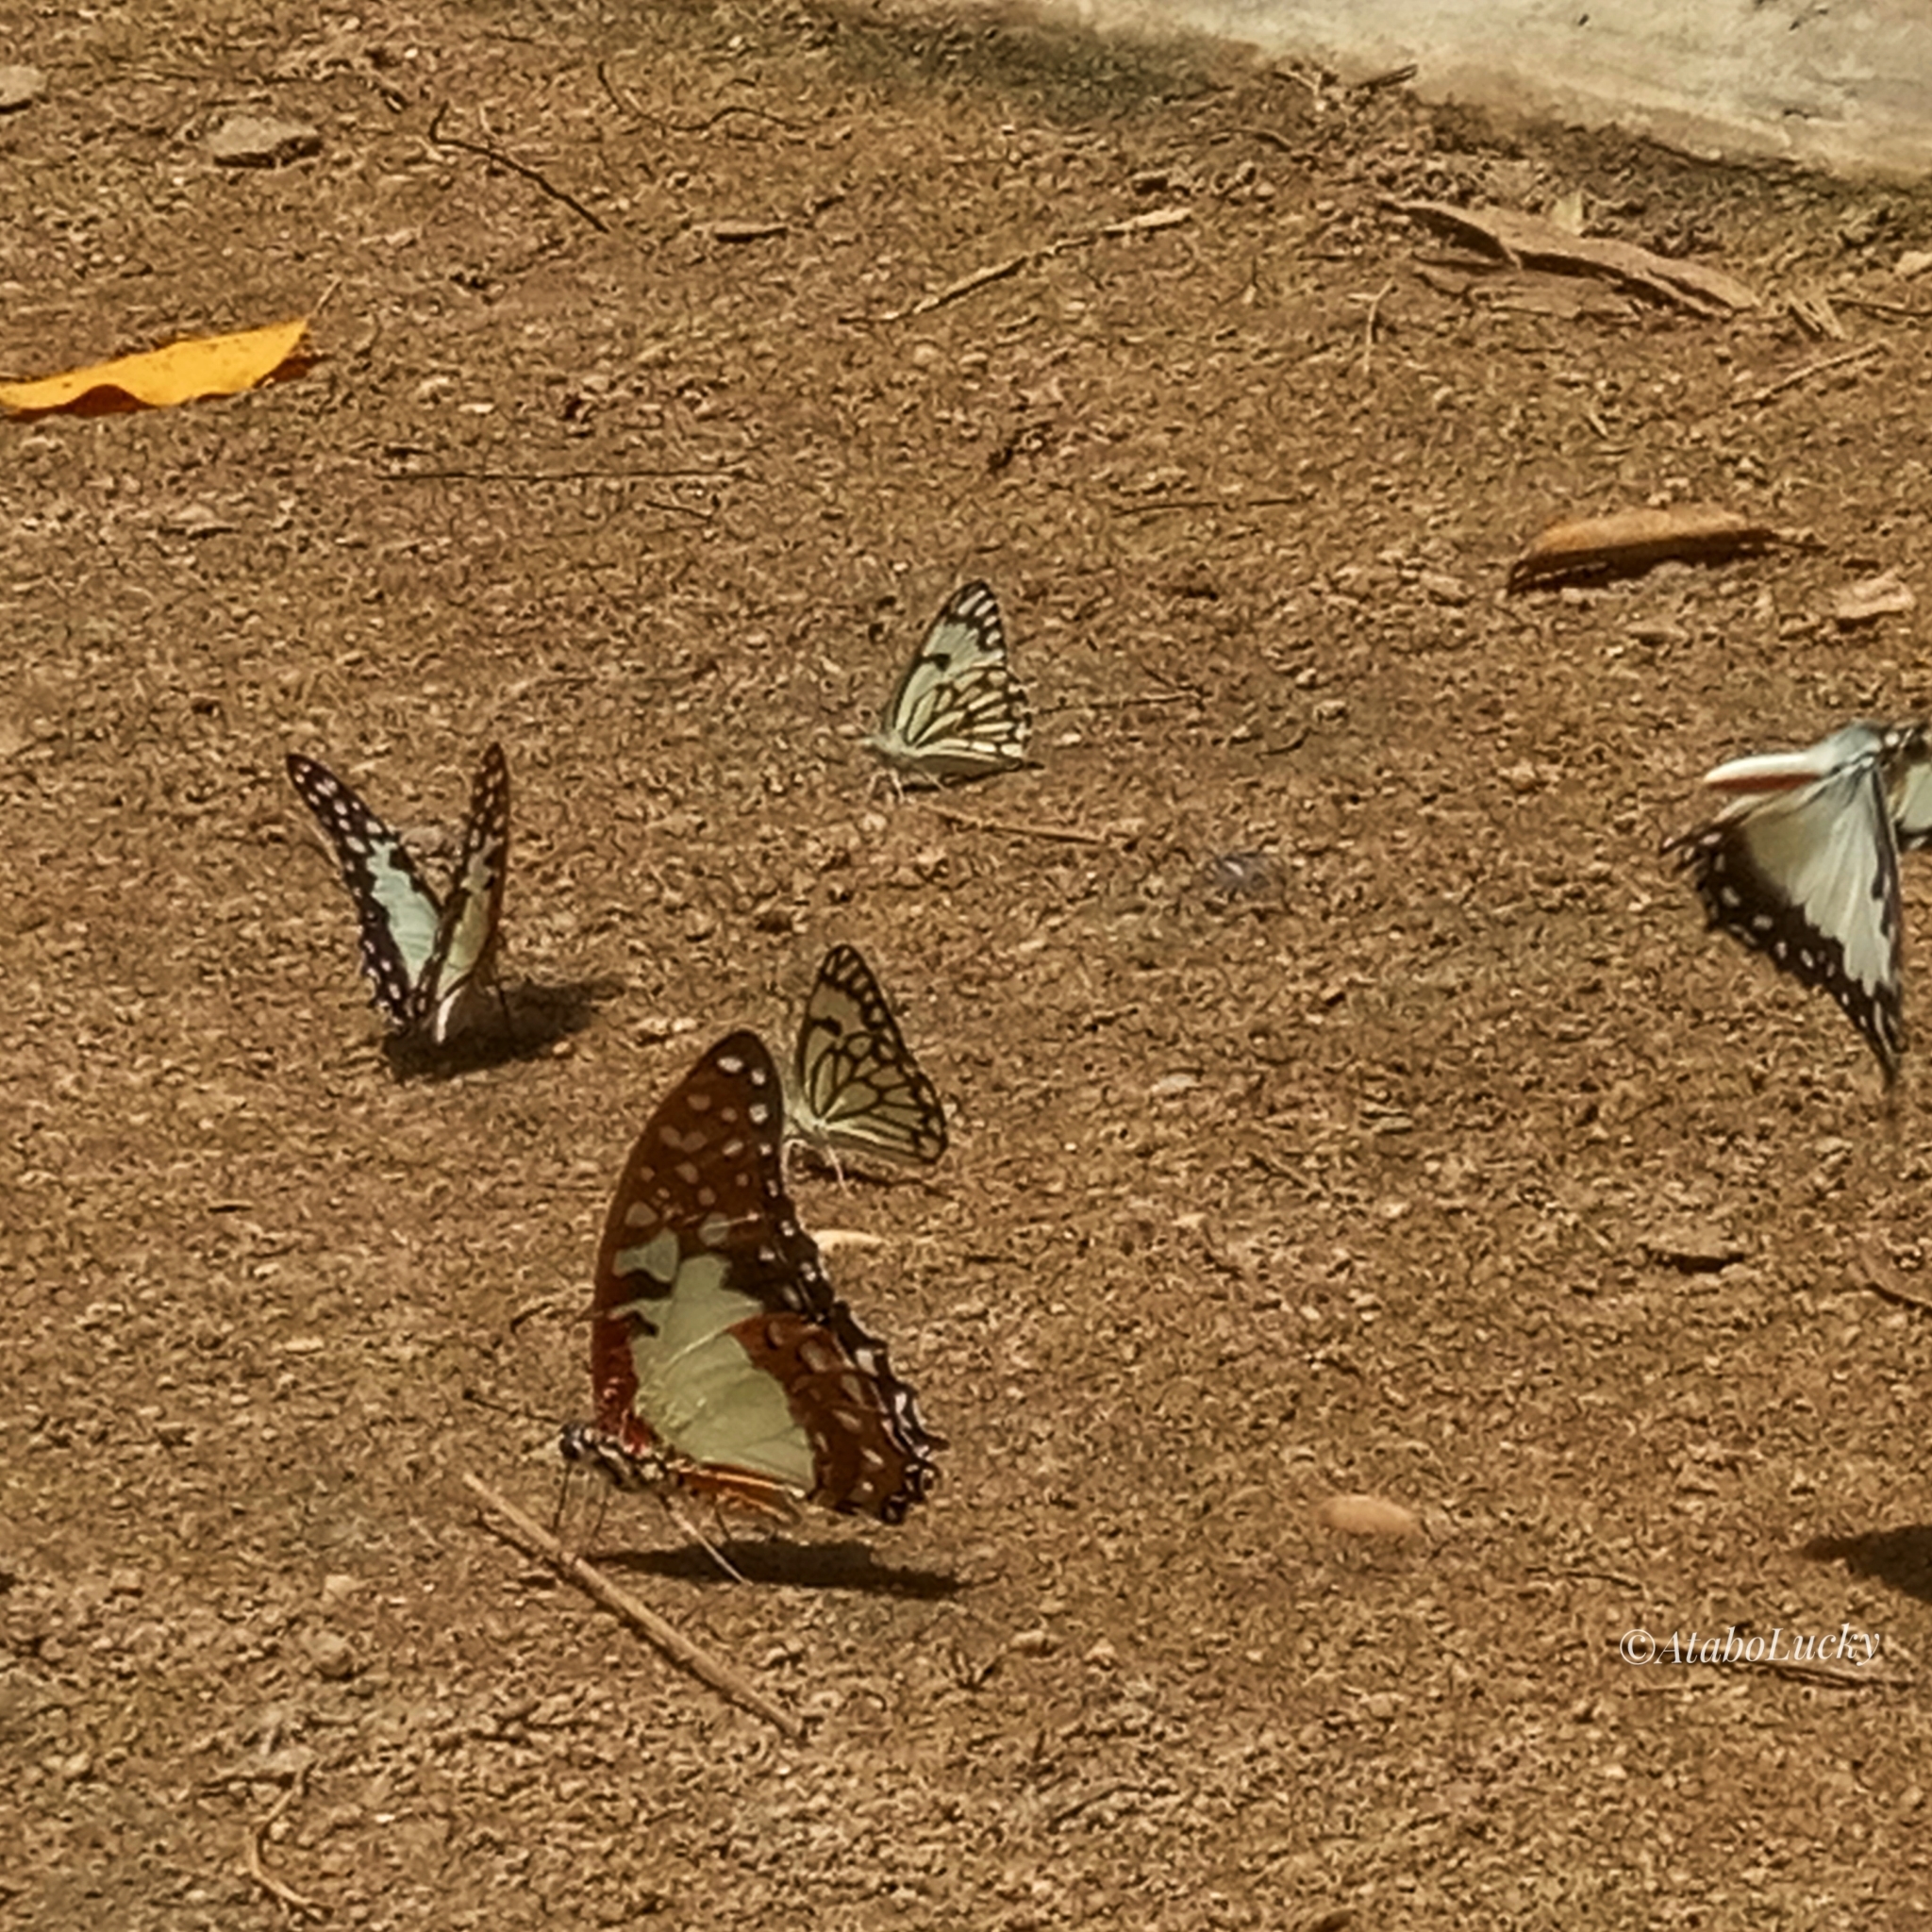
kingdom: Animalia
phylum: Arthropoda
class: Insecta
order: Lepidoptera
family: Papilionidae
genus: Graphium
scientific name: Graphium angolanus
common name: Angola white-lady swordtail
